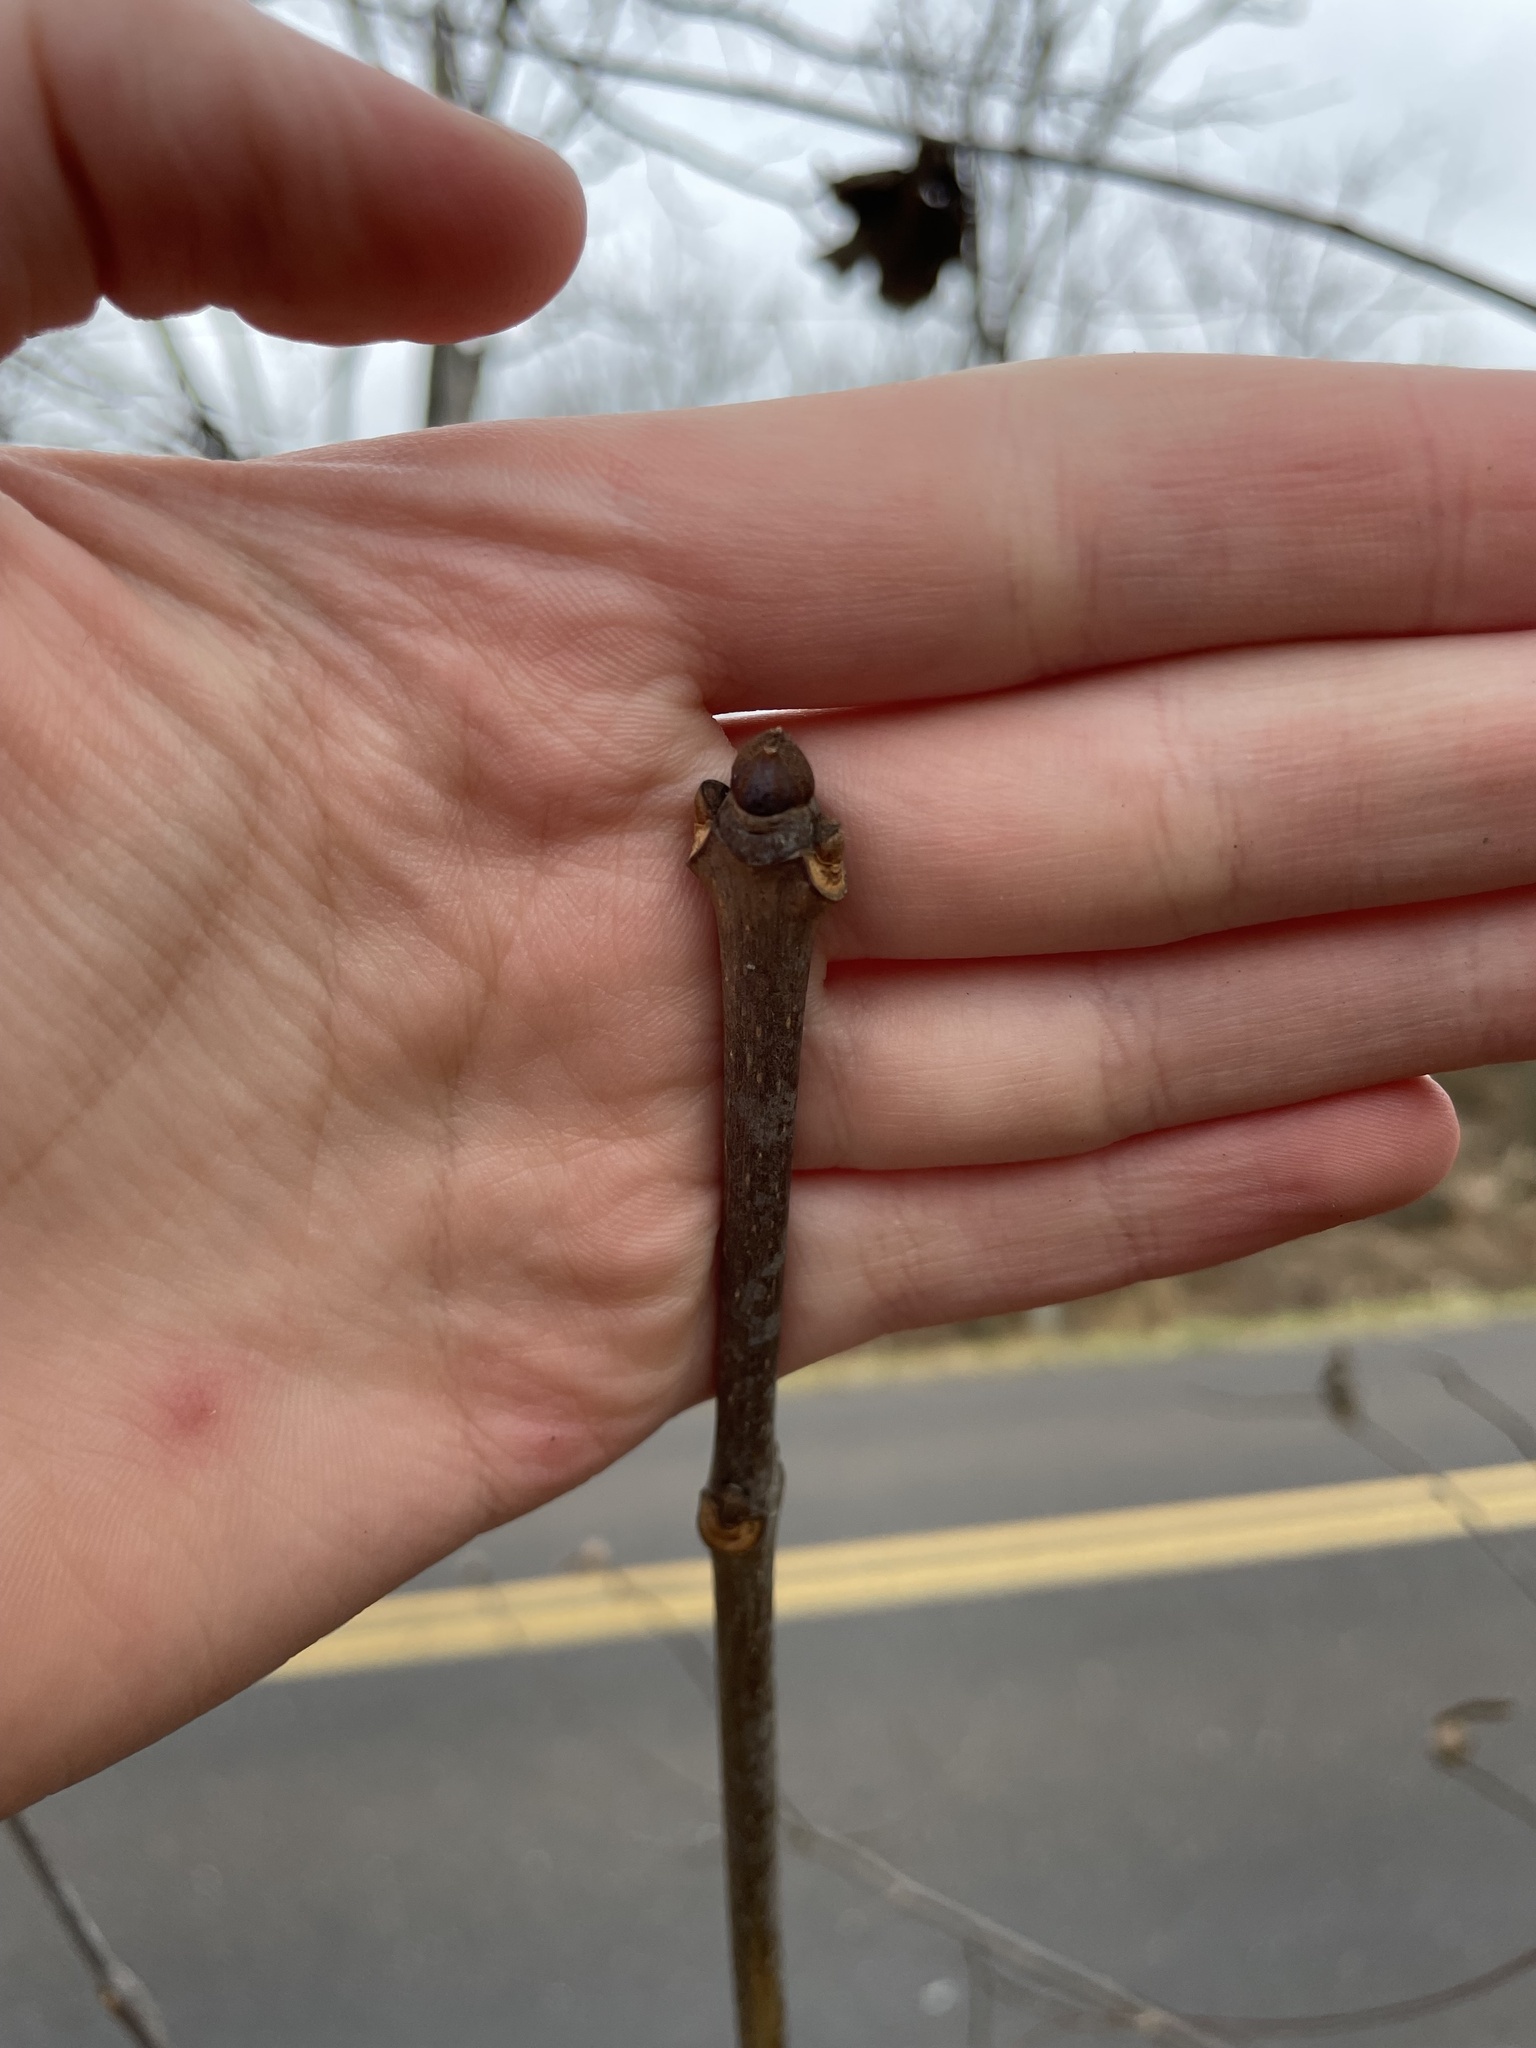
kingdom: Plantae
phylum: Tracheophyta
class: Magnoliopsida
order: Lamiales
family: Oleaceae
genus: Fraxinus
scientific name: Fraxinus americana
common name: White ash
